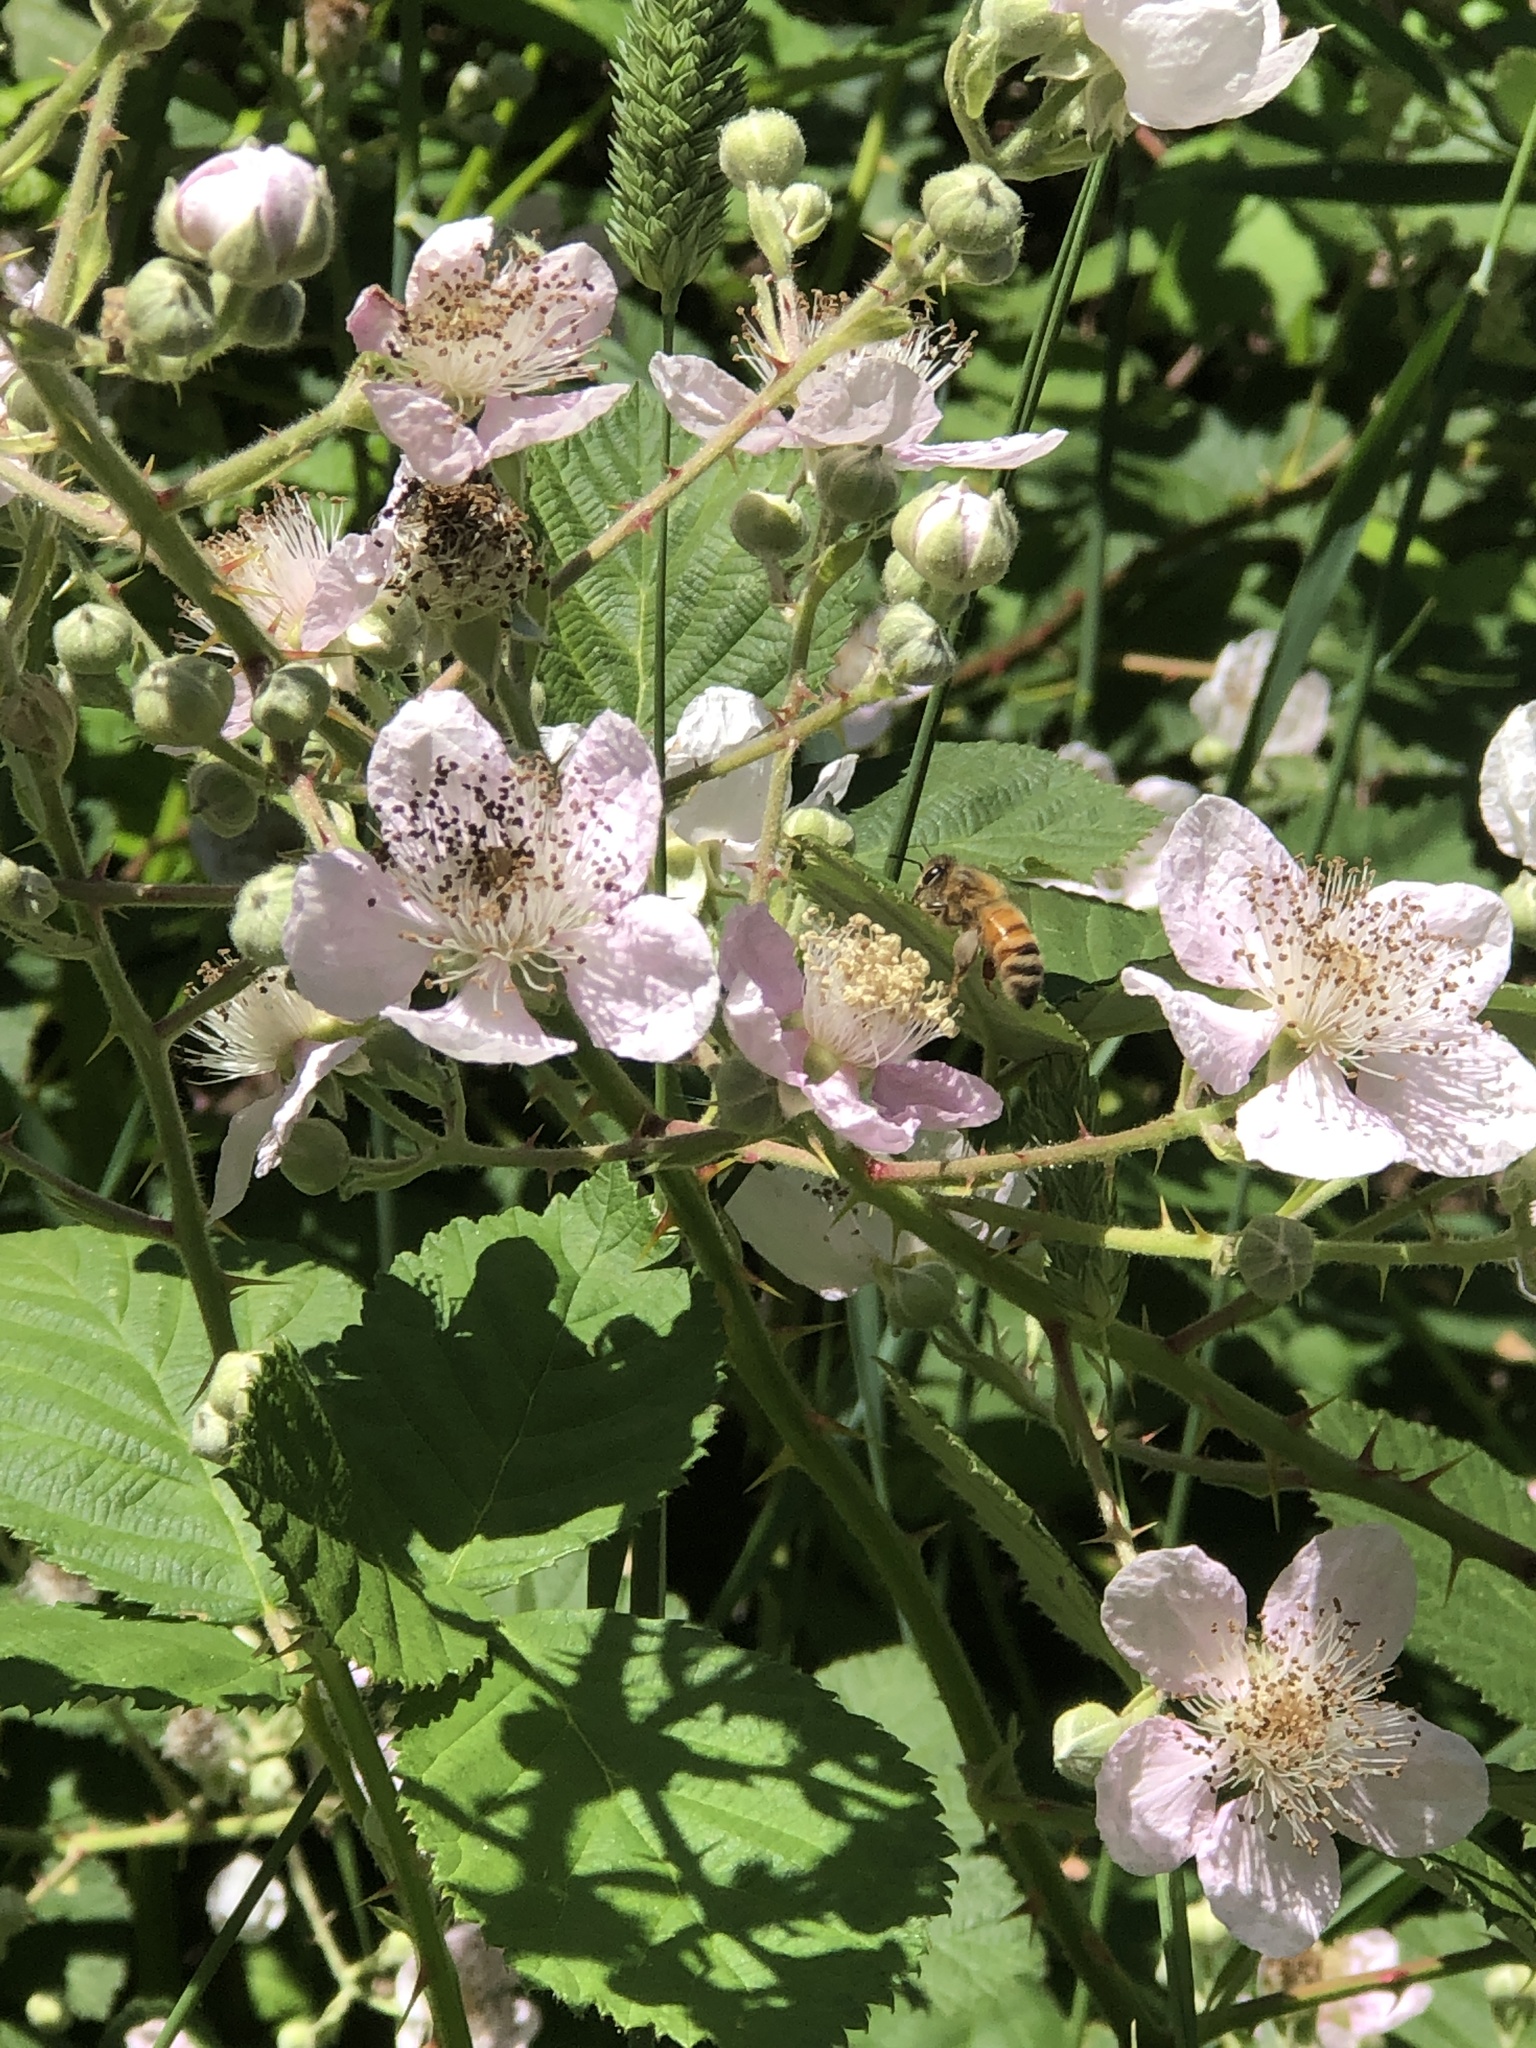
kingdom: Animalia
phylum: Arthropoda
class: Insecta
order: Hymenoptera
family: Apidae
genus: Apis
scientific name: Apis mellifera
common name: Honey bee
